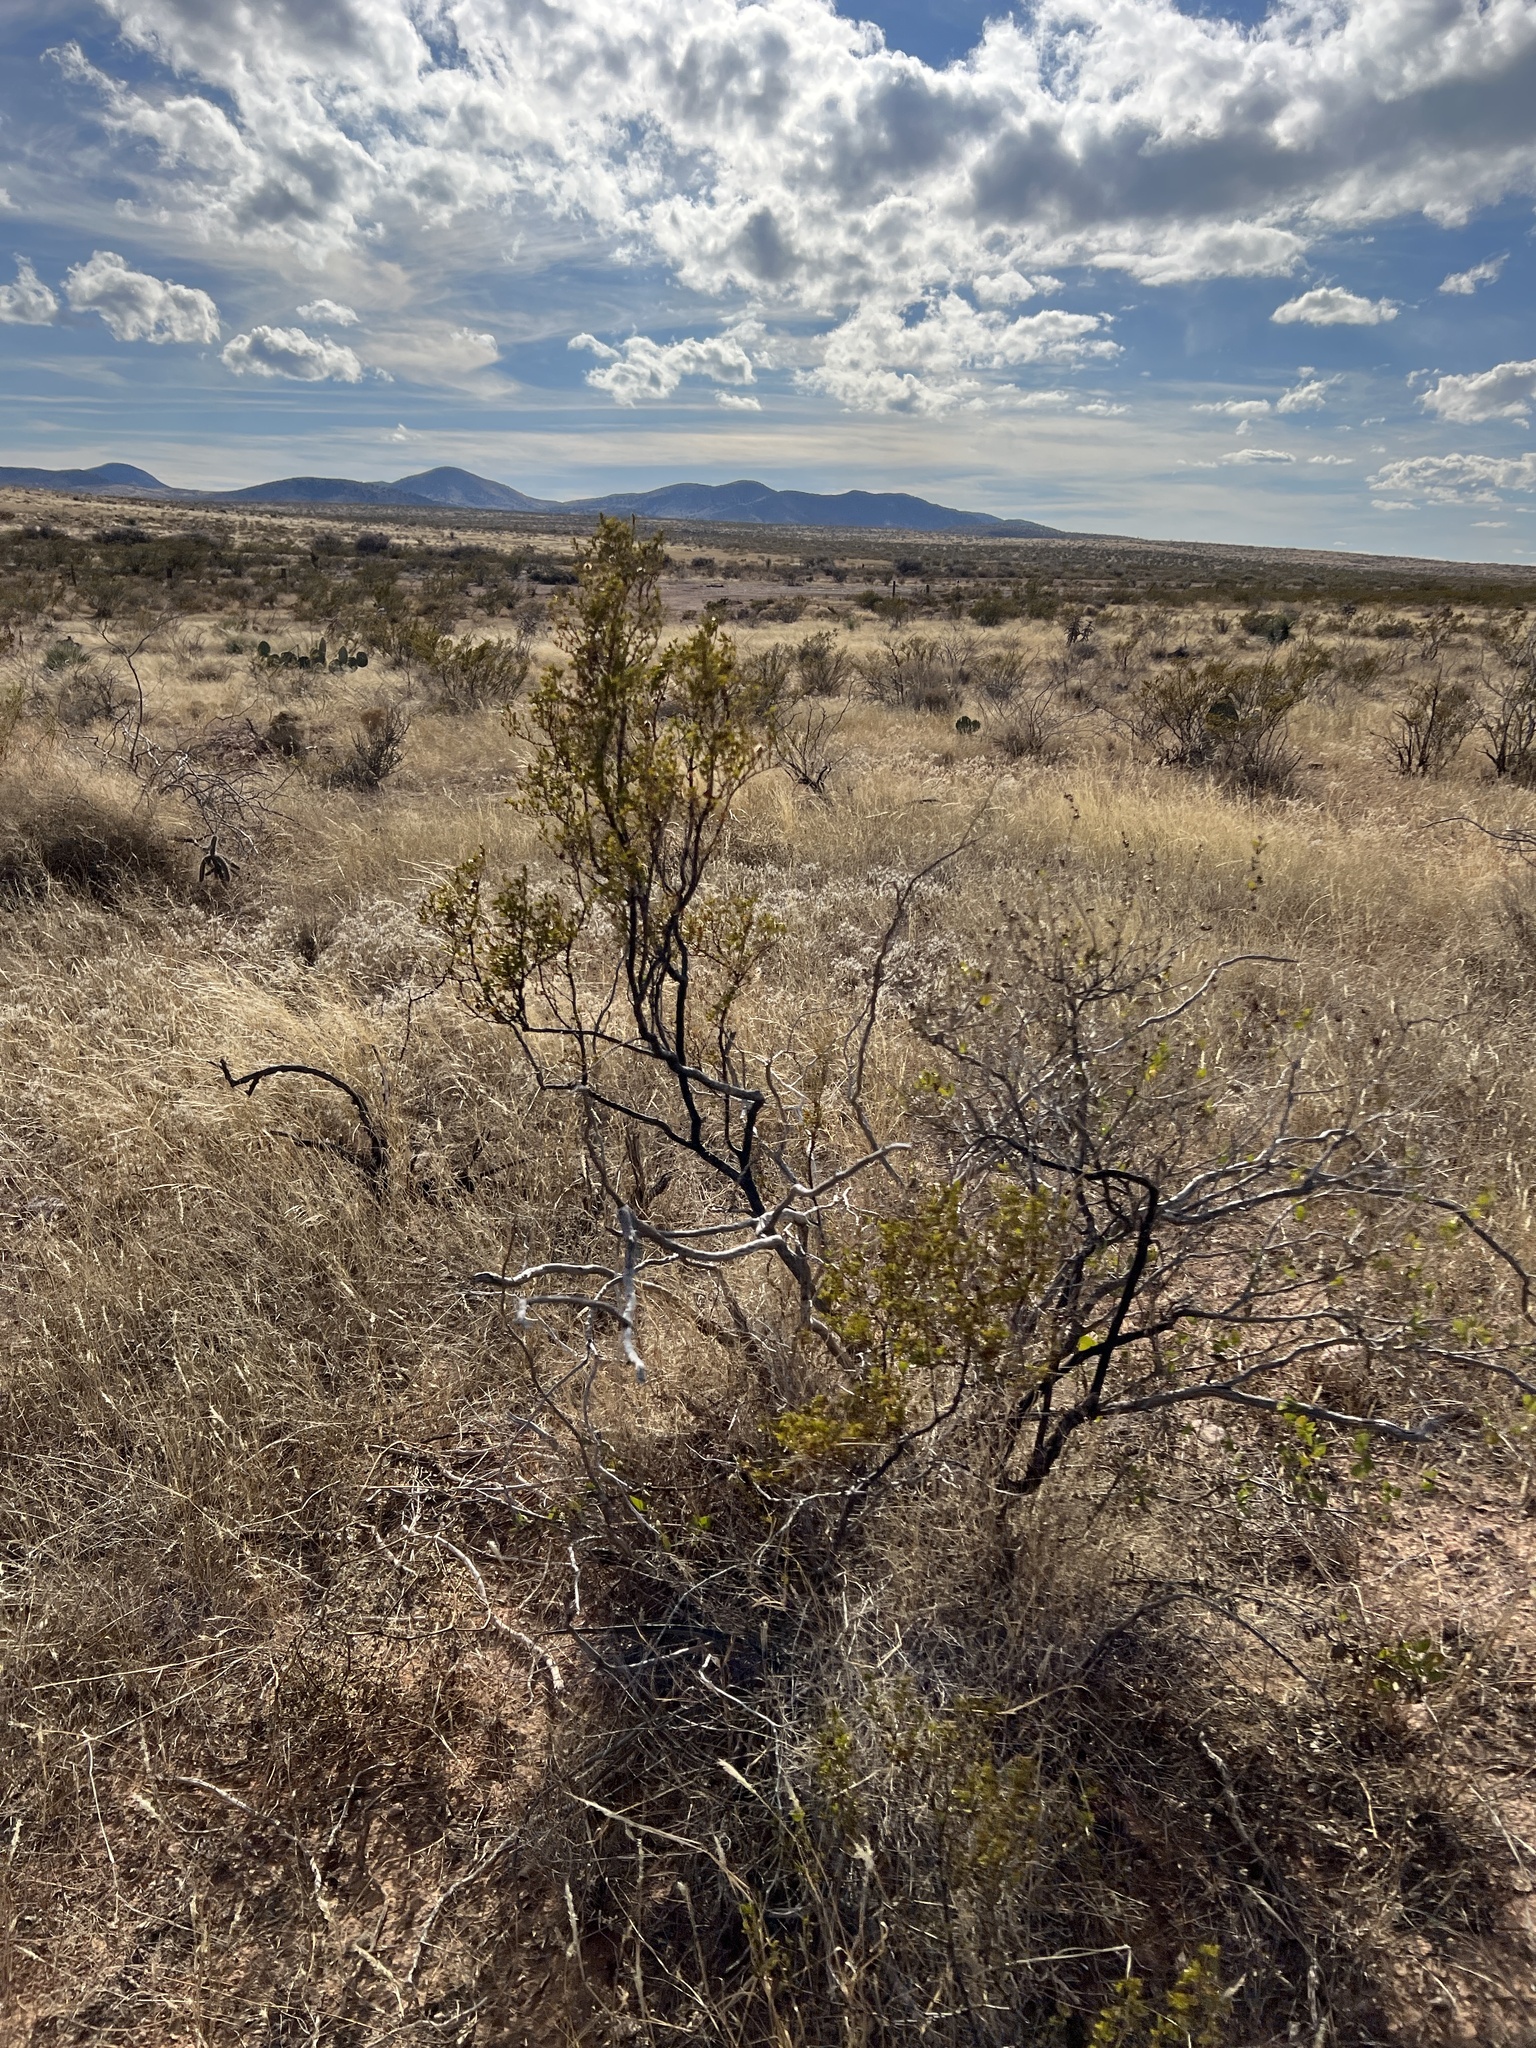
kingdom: Plantae
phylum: Tracheophyta
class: Magnoliopsida
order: Zygophyllales
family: Zygophyllaceae
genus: Larrea
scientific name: Larrea tridentata
